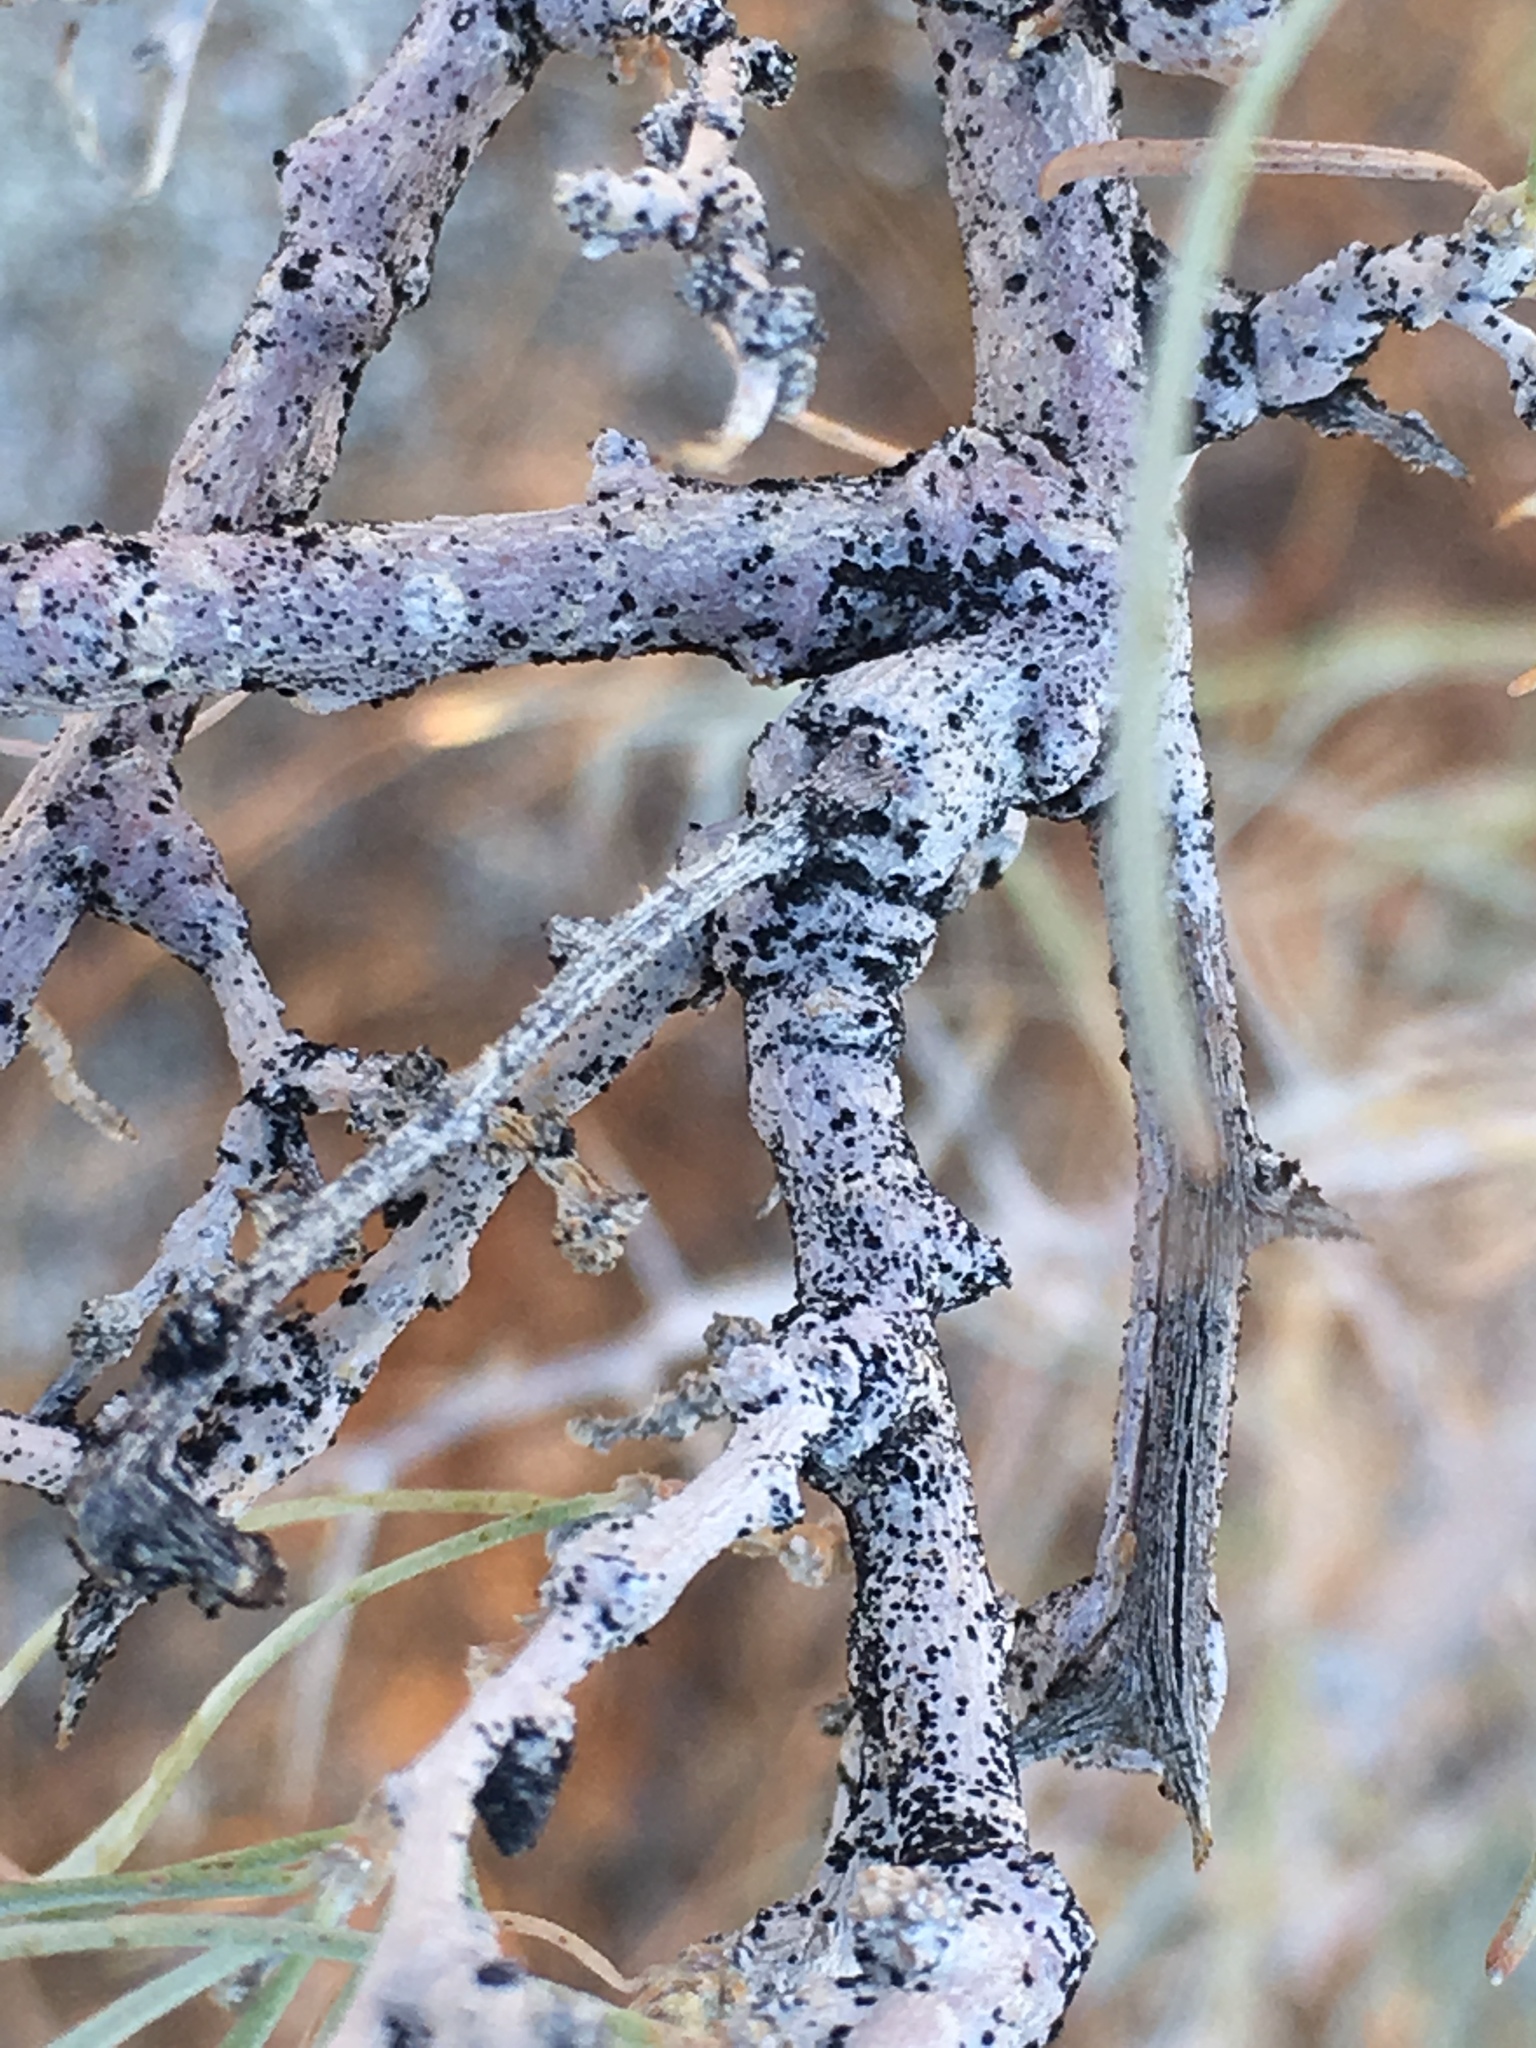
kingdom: Plantae
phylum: Tracheophyta
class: Magnoliopsida
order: Fabales
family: Fabaceae
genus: Psorothamnus
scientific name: Psorothamnus schottii
